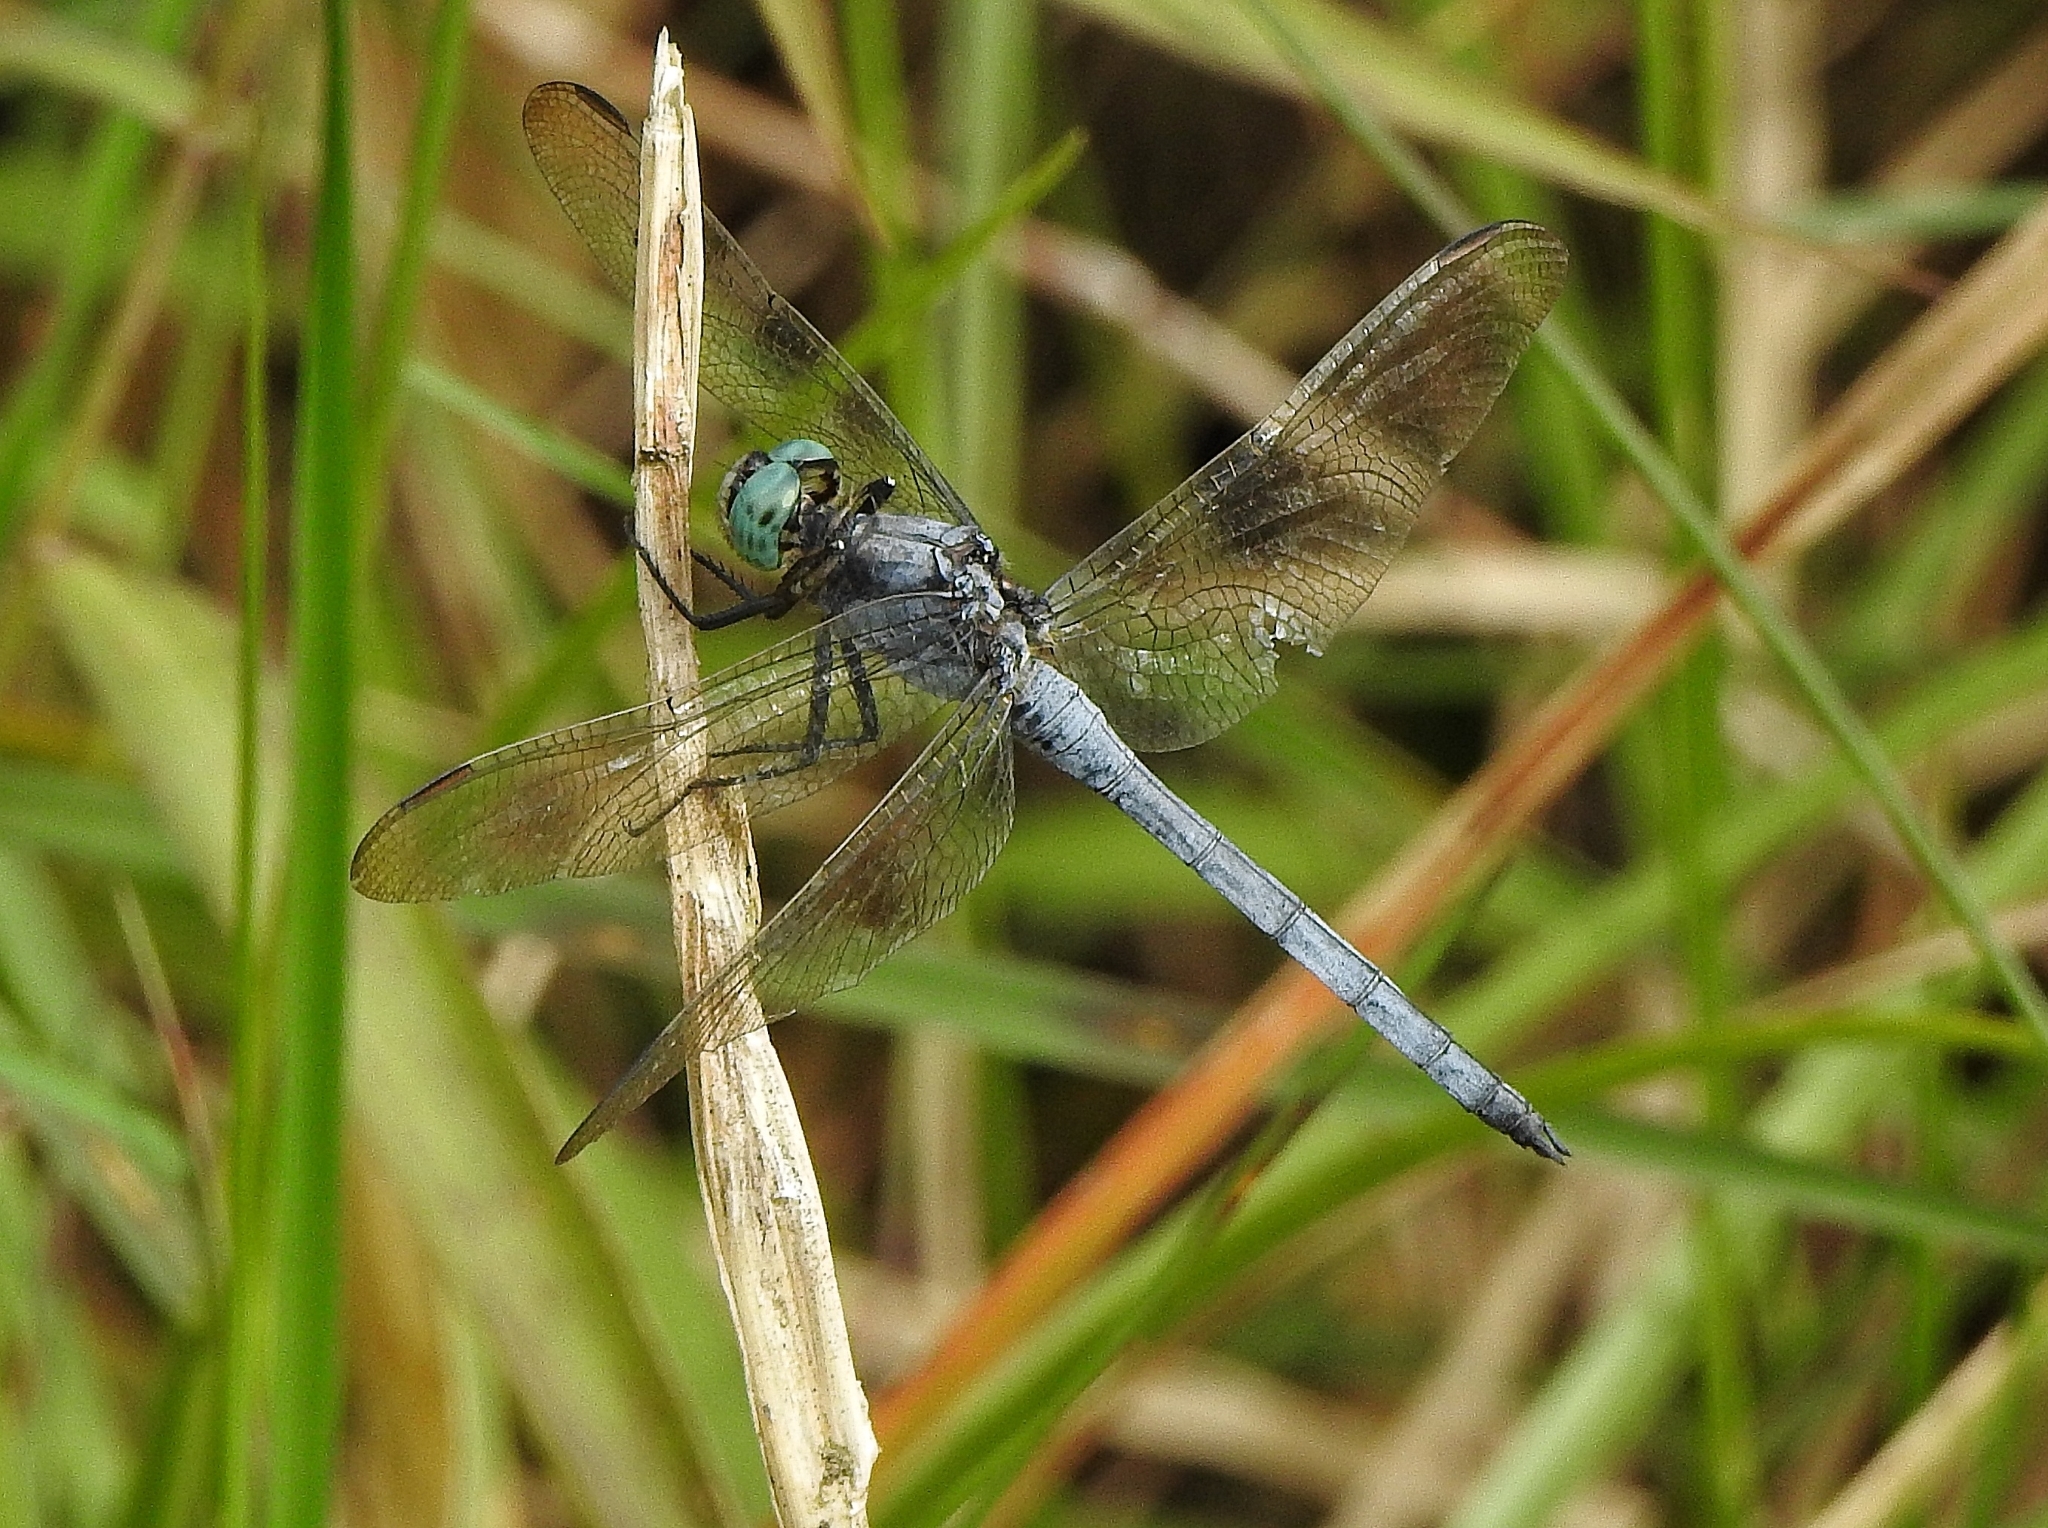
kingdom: Animalia
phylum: Arthropoda
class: Insecta
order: Odonata
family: Libellulidae
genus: Orthetrum
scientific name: Orthetrum luzonicum
